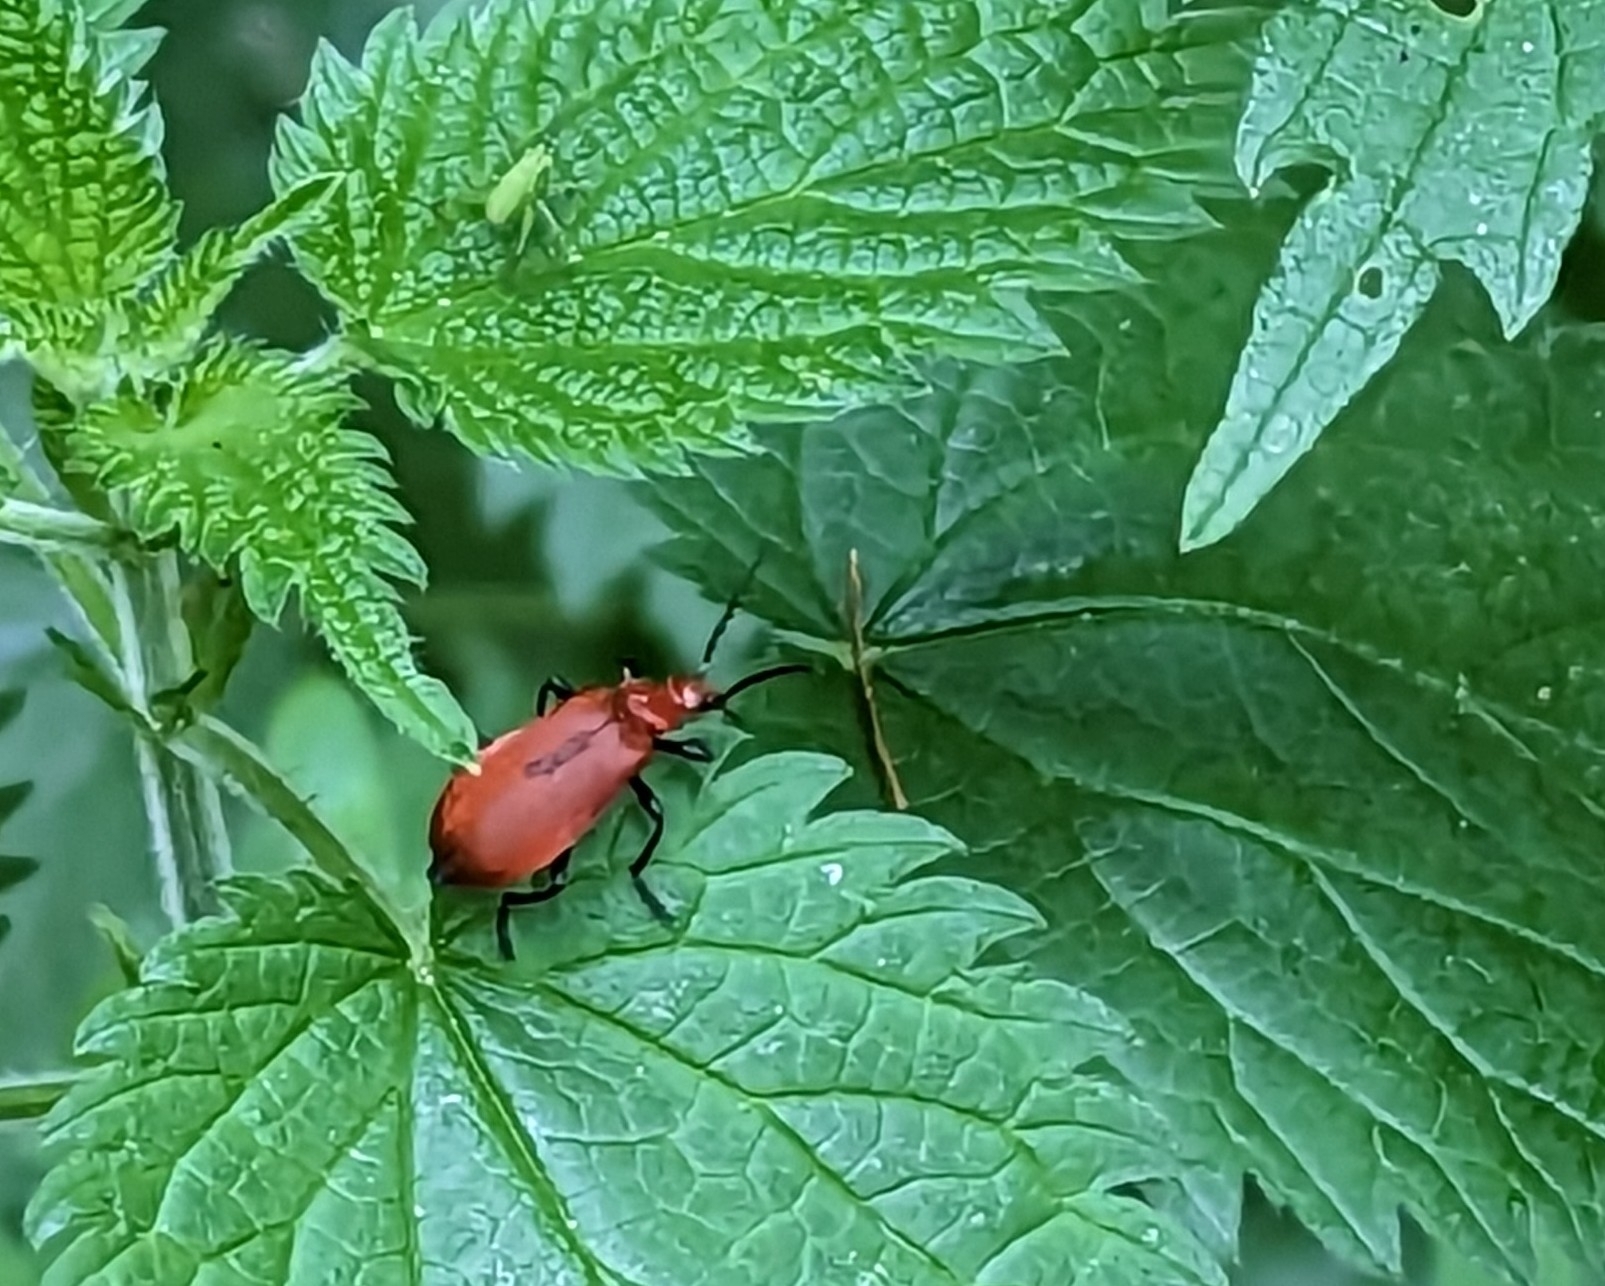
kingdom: Animalia
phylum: Arthropoda
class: Insecta
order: Coleoptera
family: Pyrochroidae
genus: Pyrochroa
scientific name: Pyrochroa serraticornis
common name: Red-headed cardinal beetle
